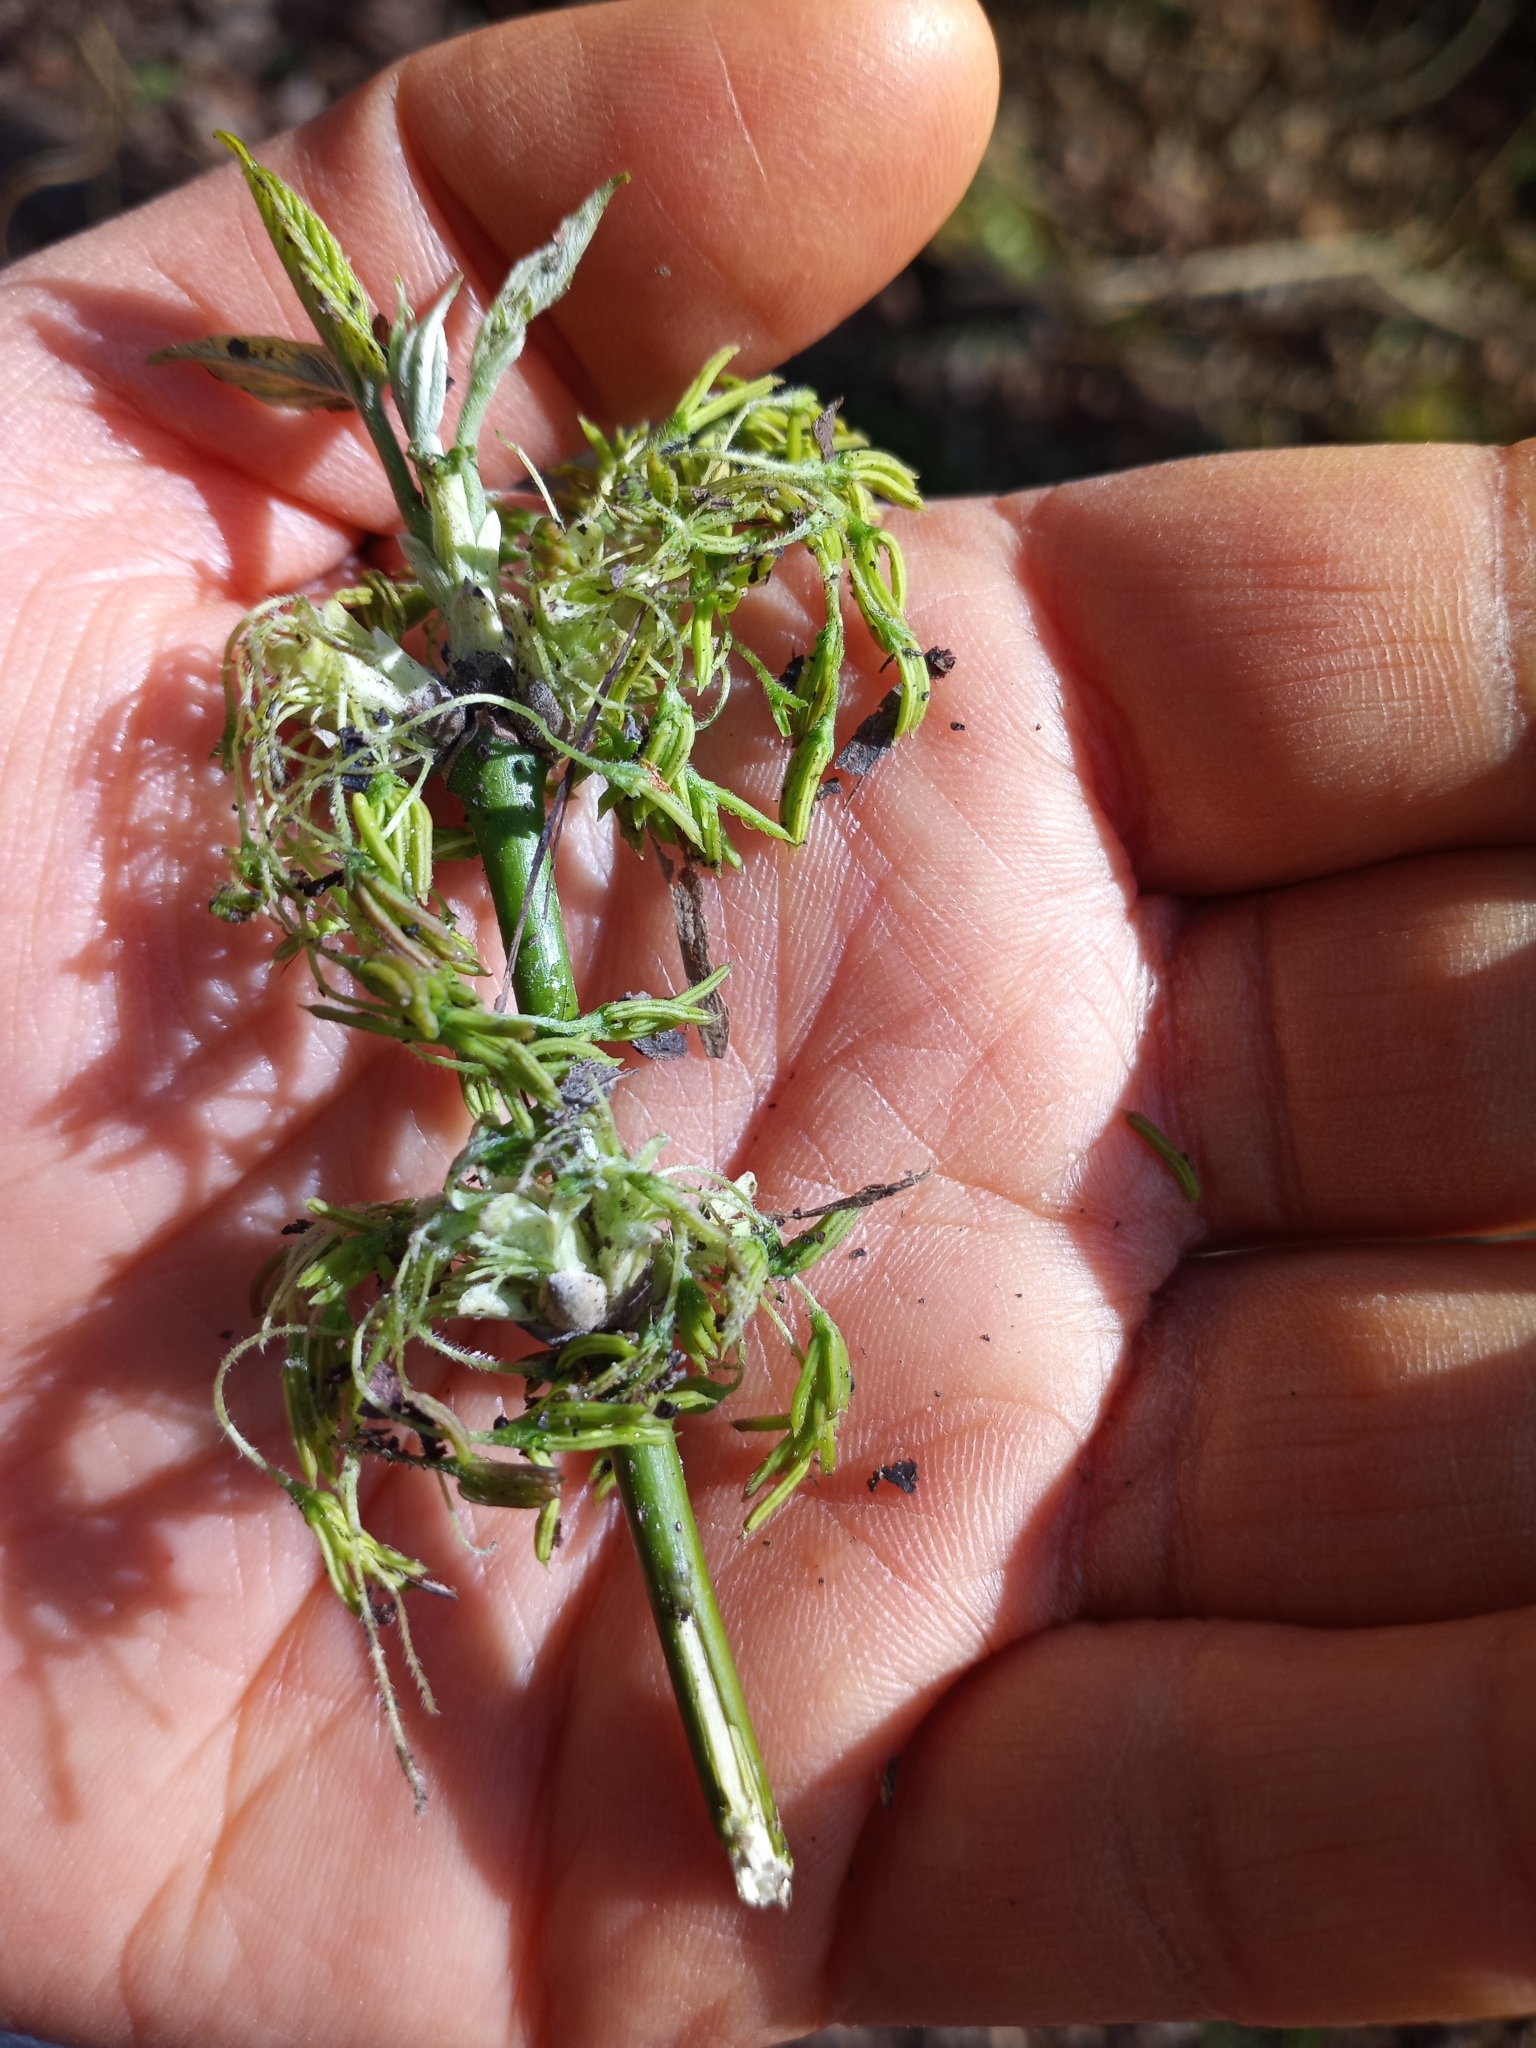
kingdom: Plantae
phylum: Tracheophyta
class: Magnoliopsida
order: Sapindales
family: Sapindaceae
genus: Acer
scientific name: Acer negundo
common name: Ashleaf maple
